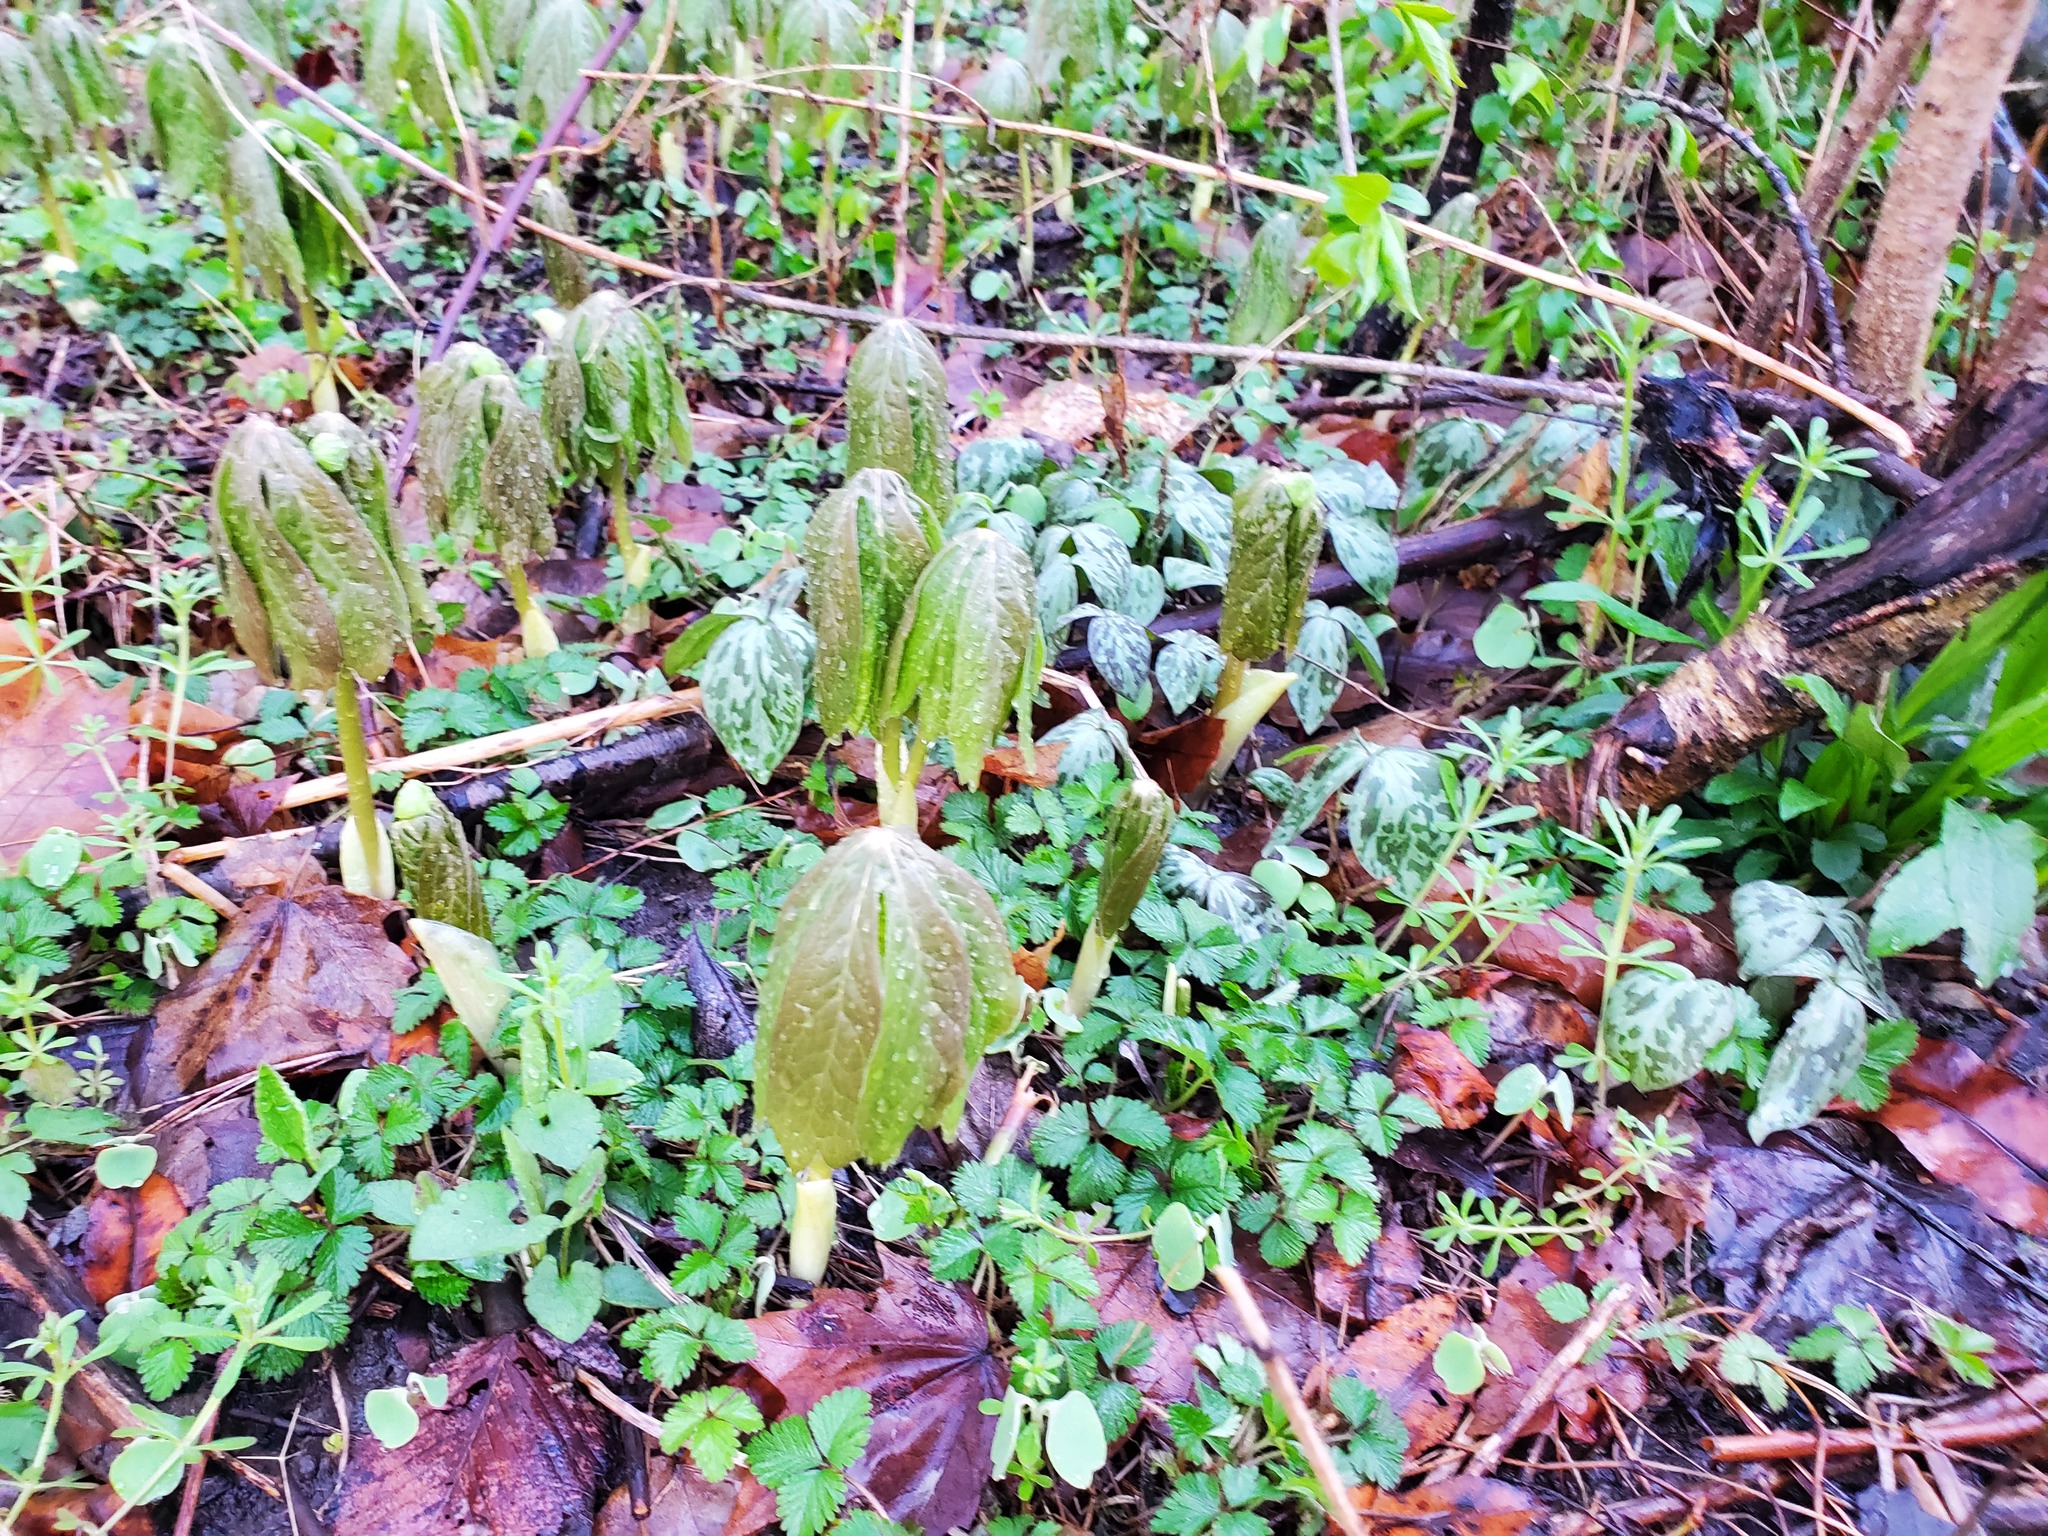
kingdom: Plantae
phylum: Tracheophyta
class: Magnoliopsida
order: Ranunculales
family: Berberidaceae
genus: Podophyllum
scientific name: Podophyllum peltatum
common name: Wild mandrake
